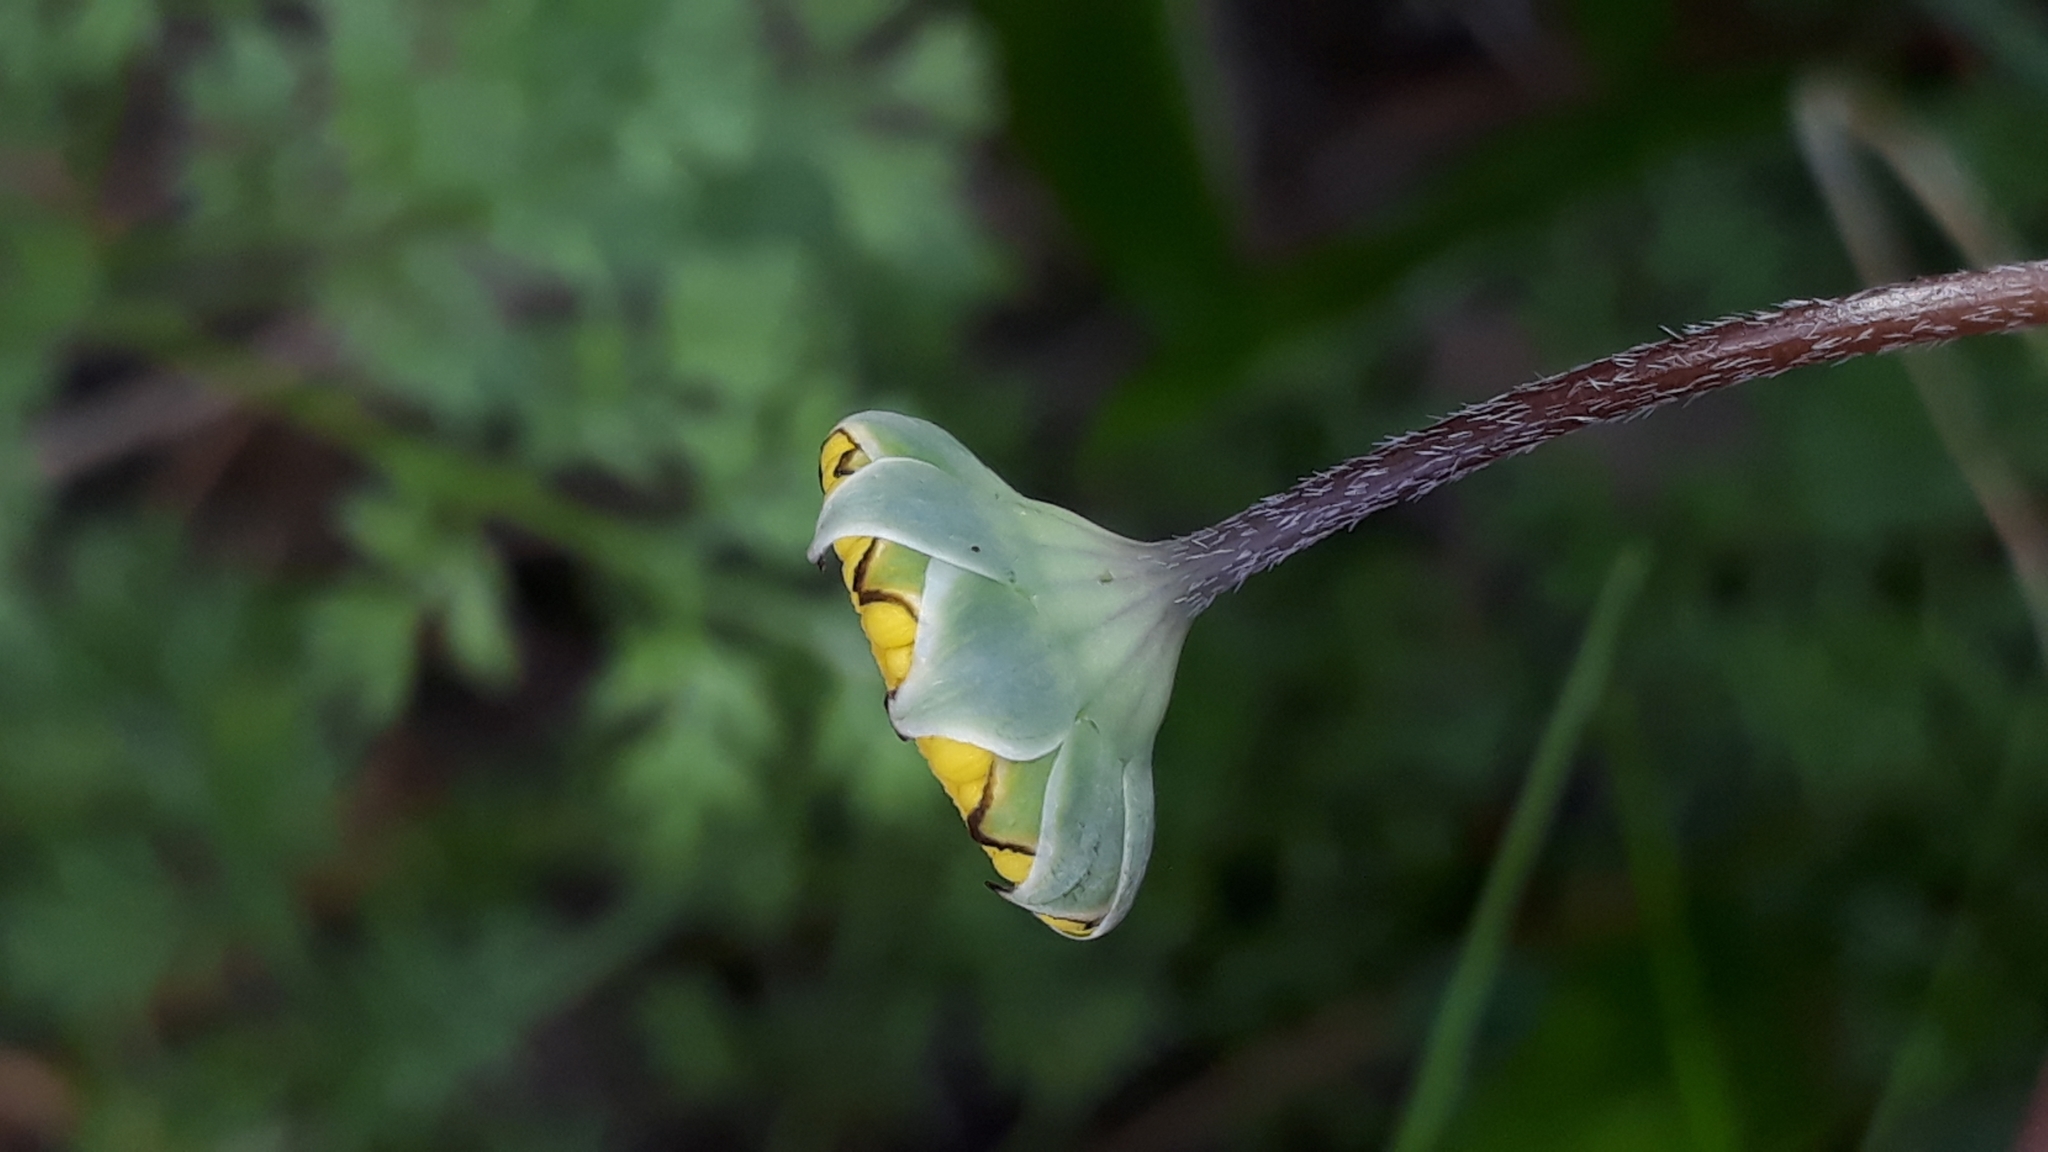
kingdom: Plantae
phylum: Tracheophyta
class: Magnoliopsida
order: Asterales
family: Asteraceae
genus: Cotula
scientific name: Cotula pruinosa
